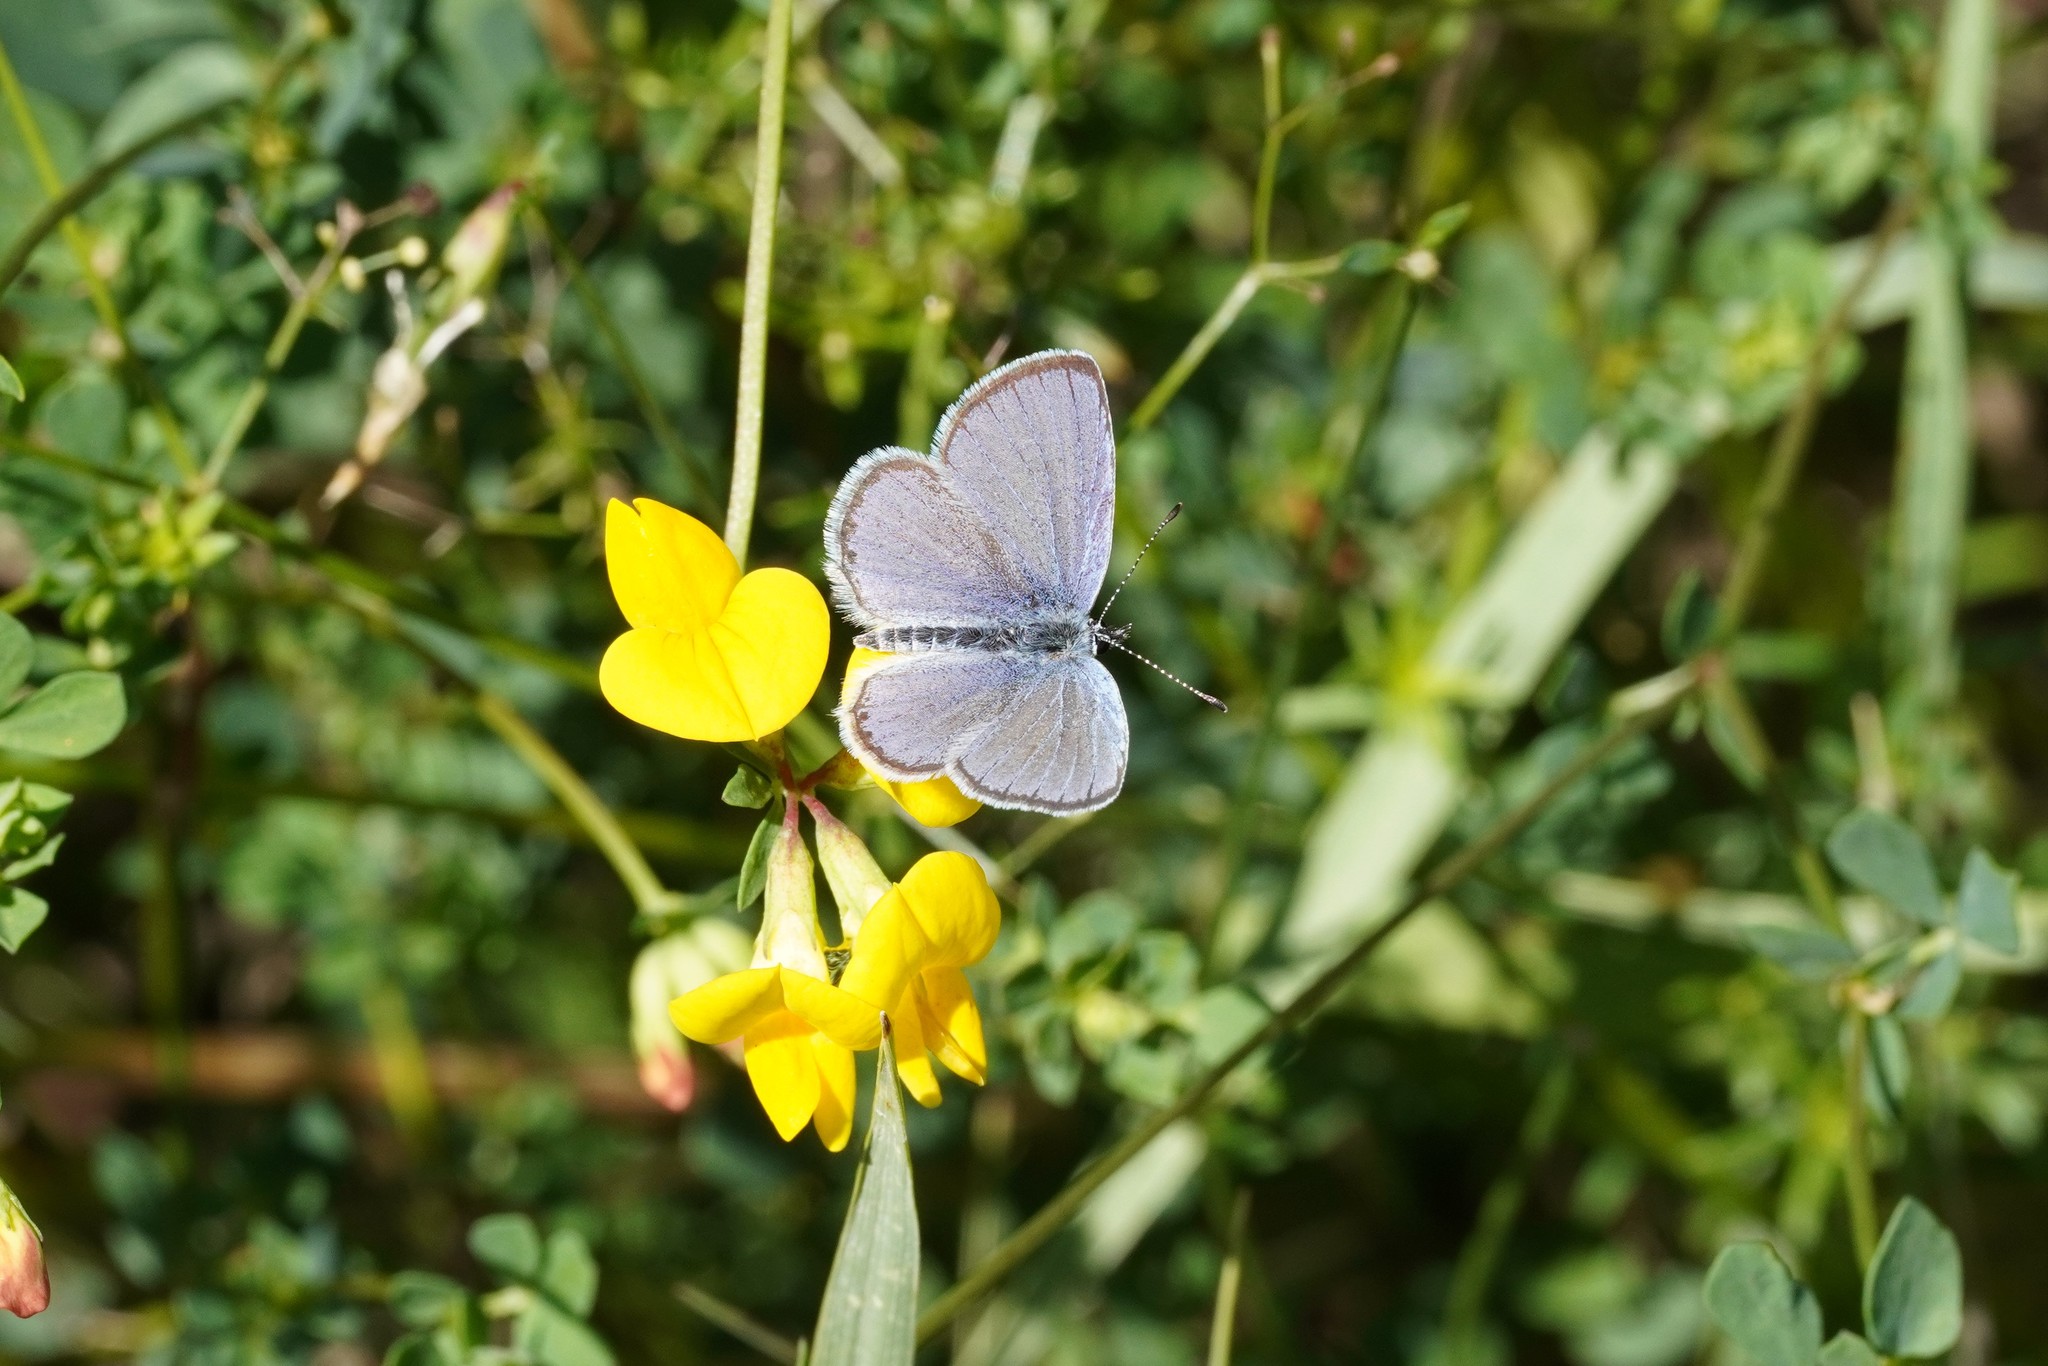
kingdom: Animalia
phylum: Arthropoda
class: Insecta
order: Lepidoptera
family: Lycaenidae
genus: Elkalyce
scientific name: Elkalyce alcetas
